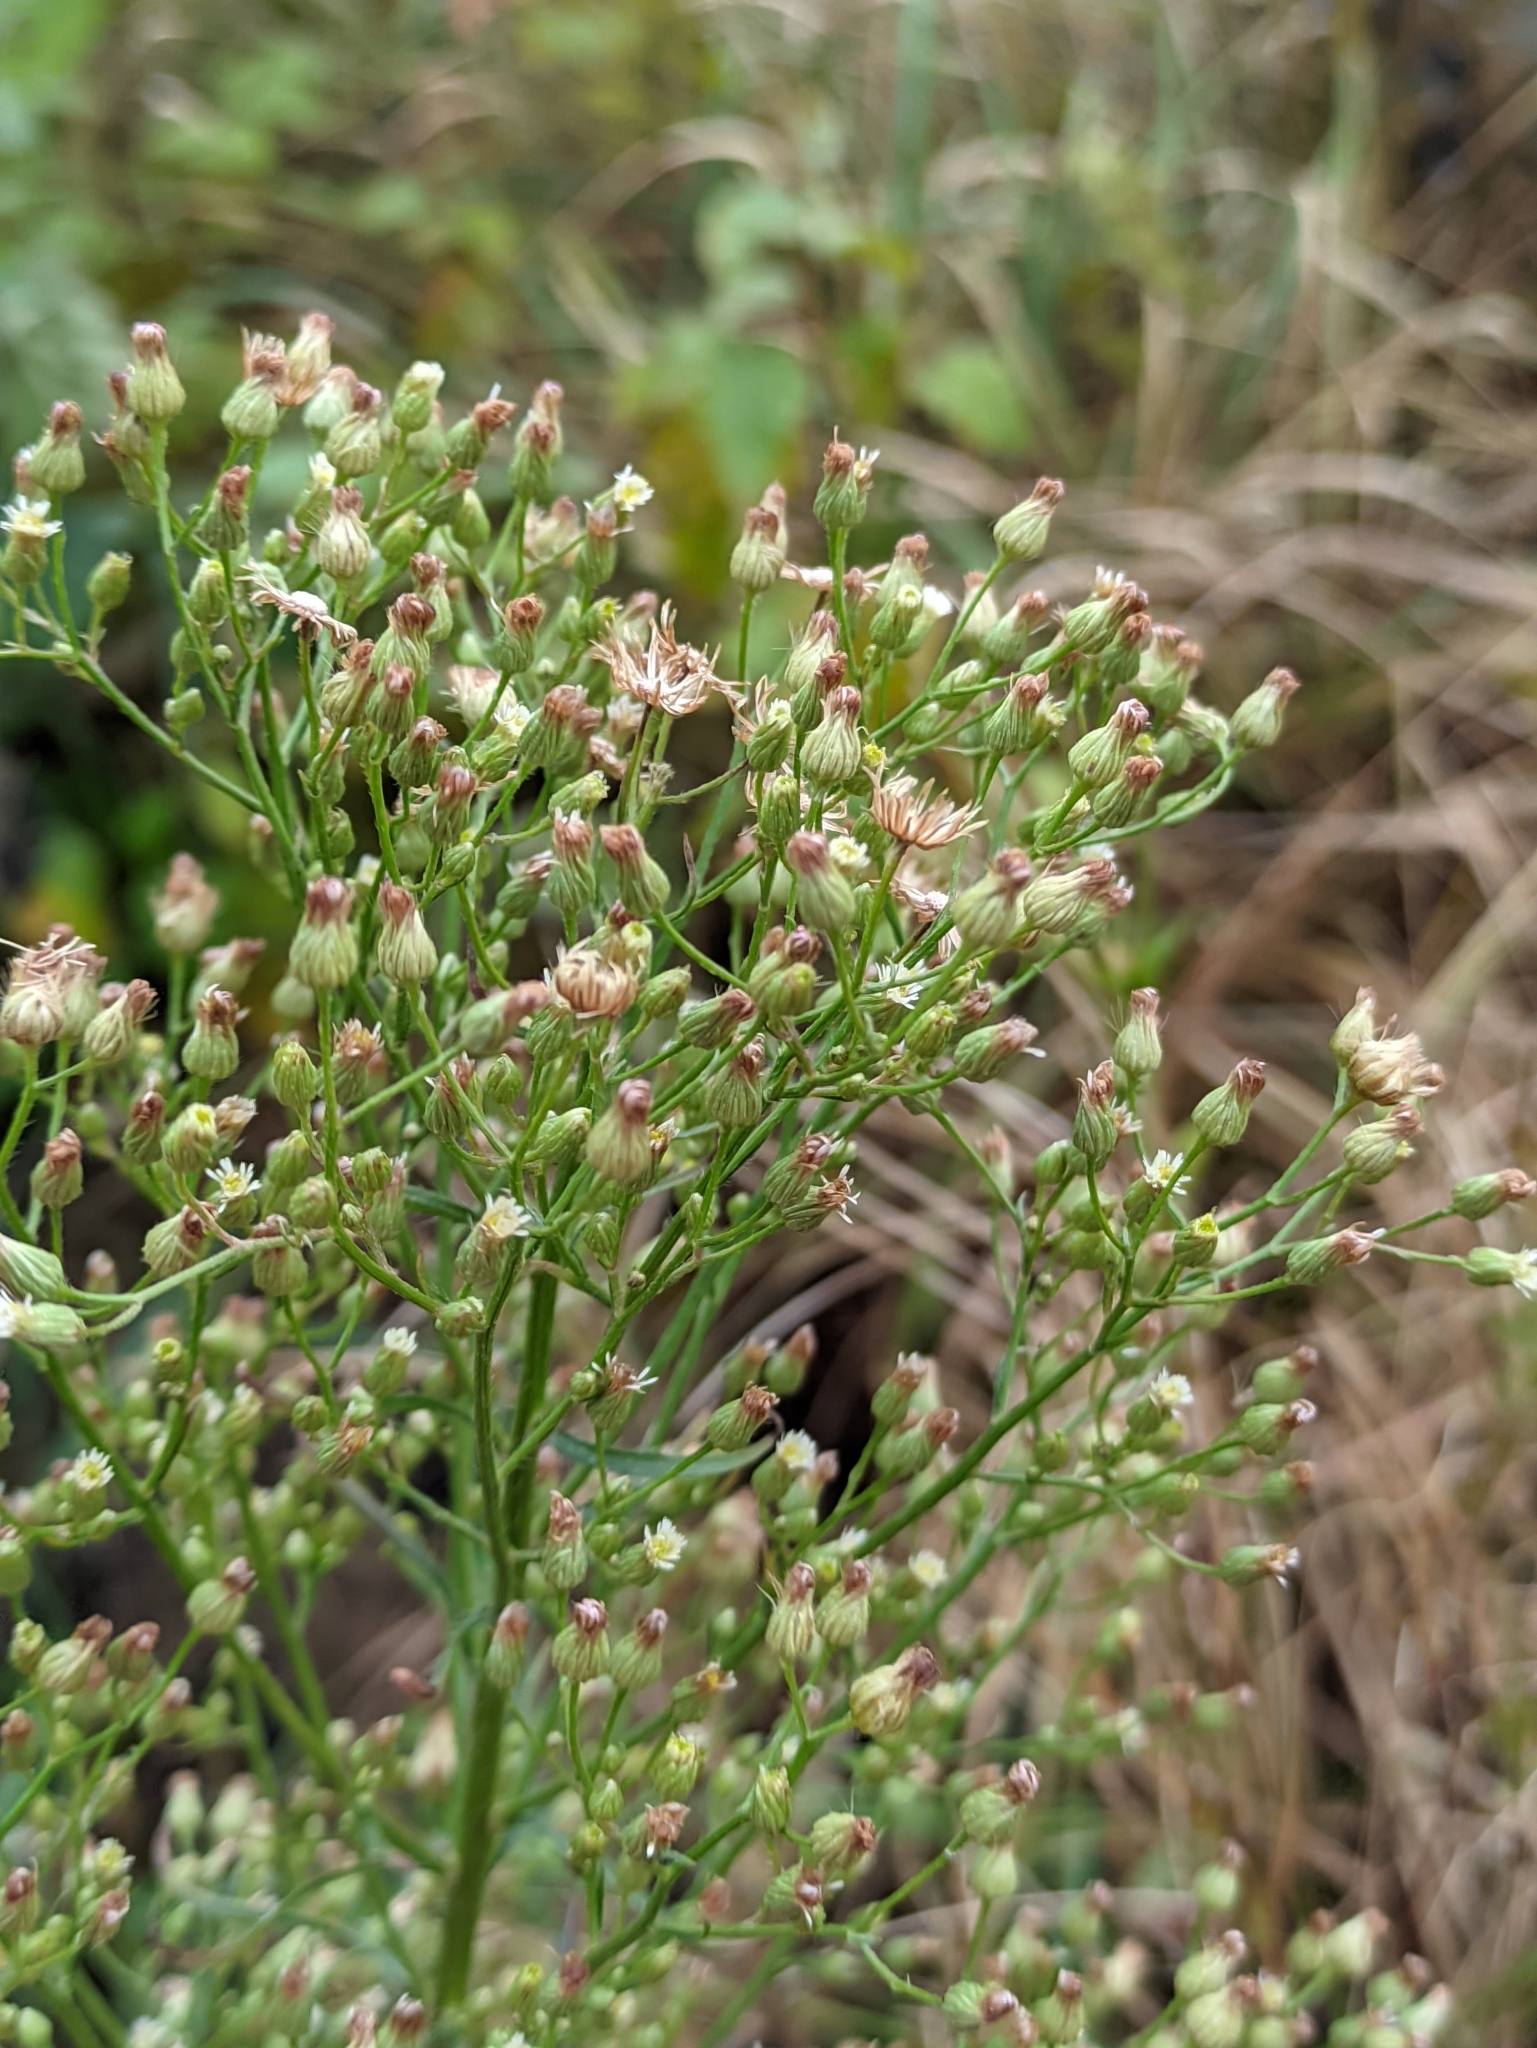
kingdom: Plantae
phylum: Tracheophyta
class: Magnoliopsida
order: Asterales
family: Asteraceae
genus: Erigeron
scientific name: Erigeron canadensis
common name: Canadian fleabane
